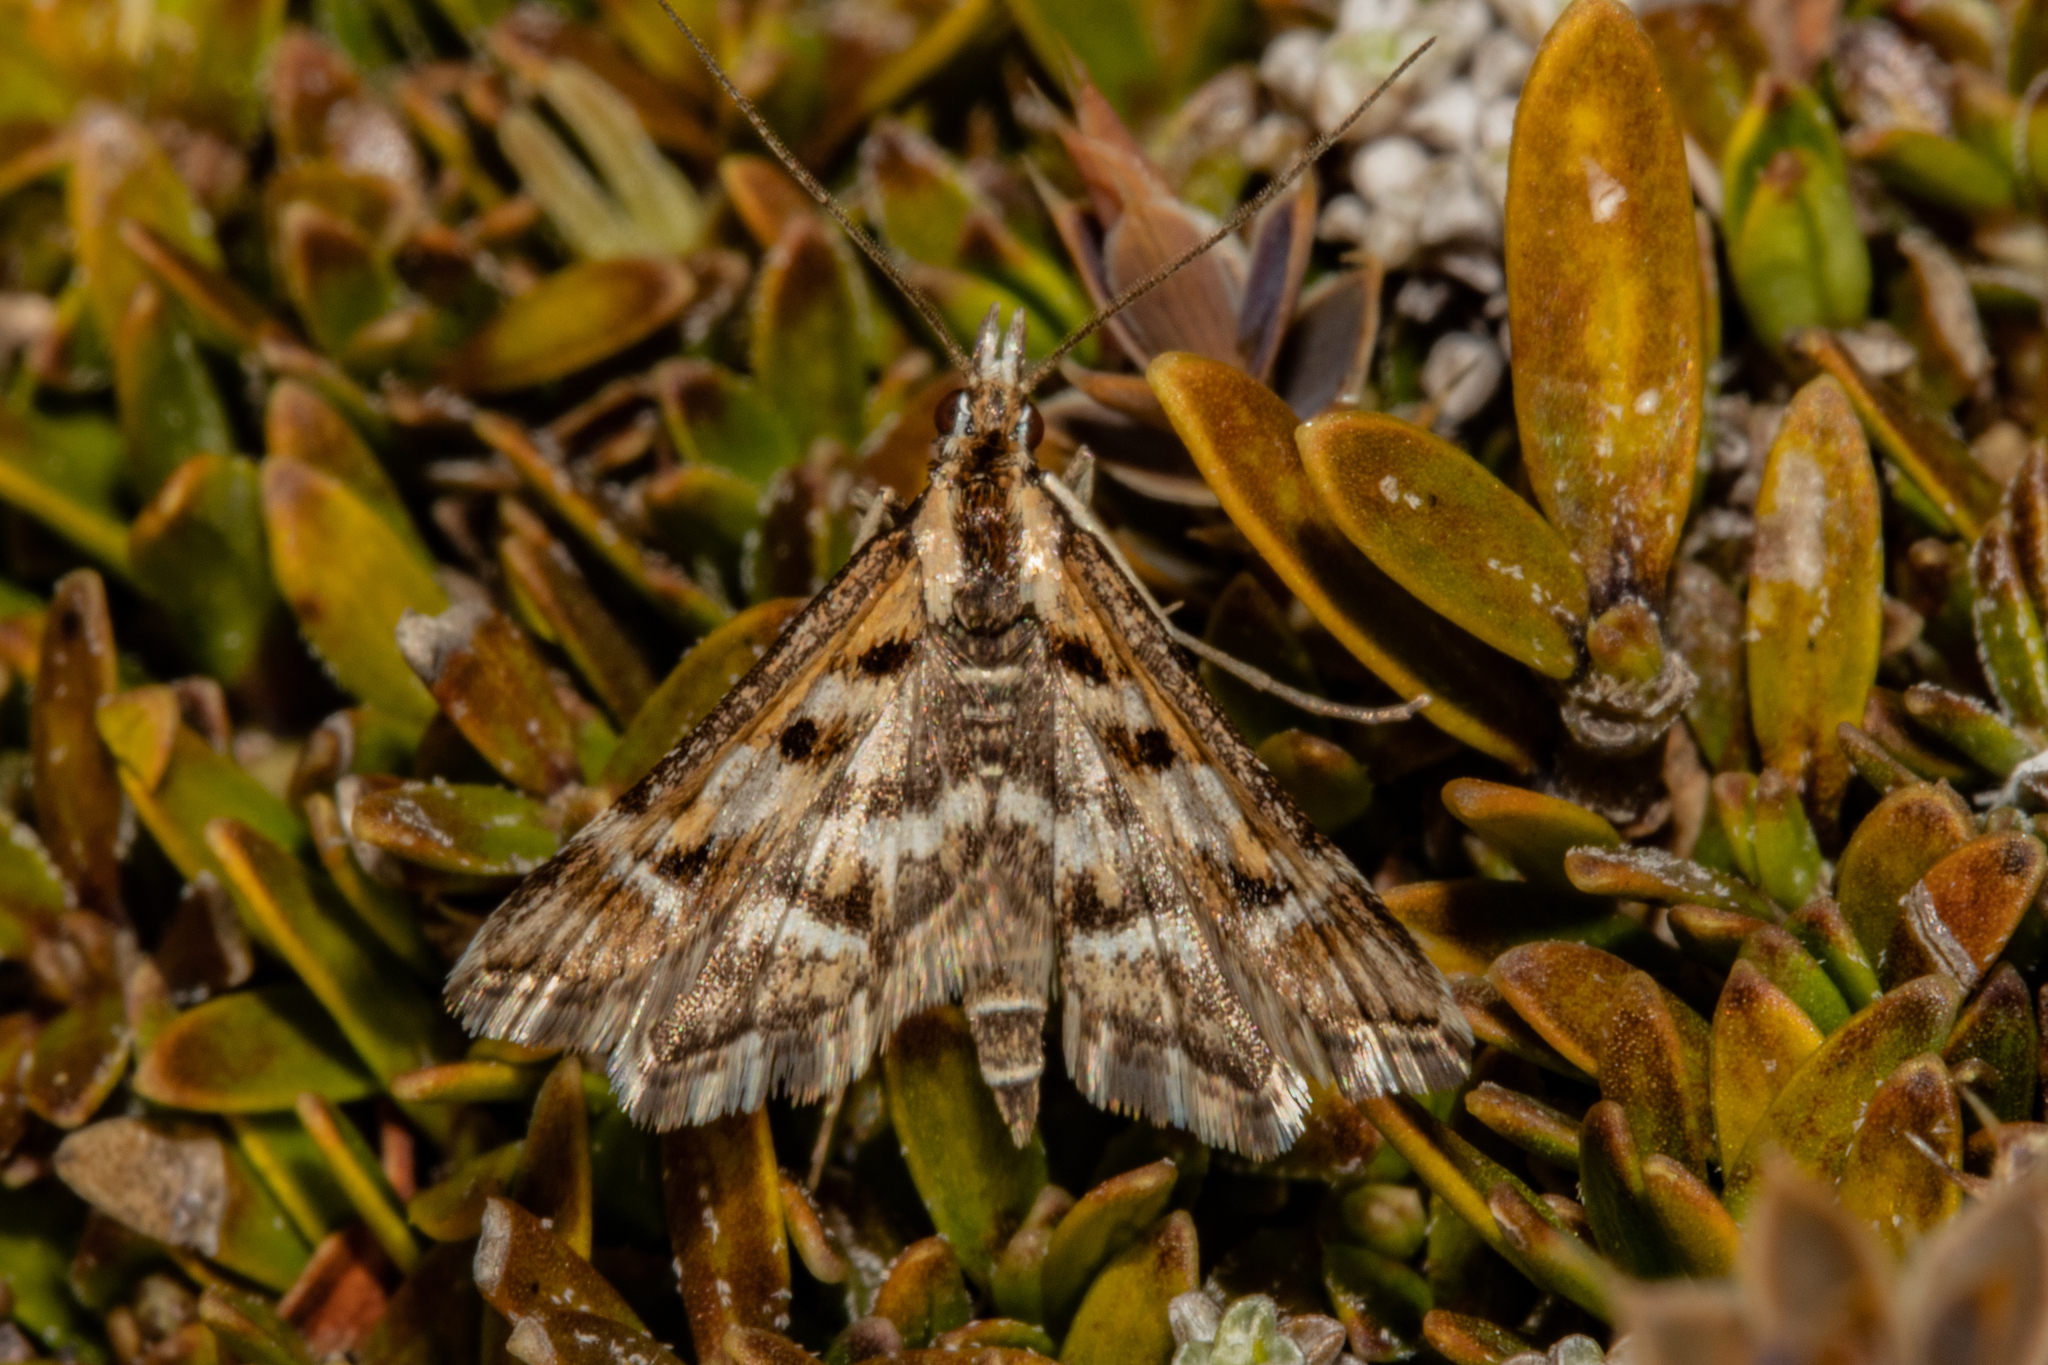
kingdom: Animalia
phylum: Arthropoda
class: Insecta
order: Lepidoptera
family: Crambidae
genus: Diasemia
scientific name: Diasemia grammalis
